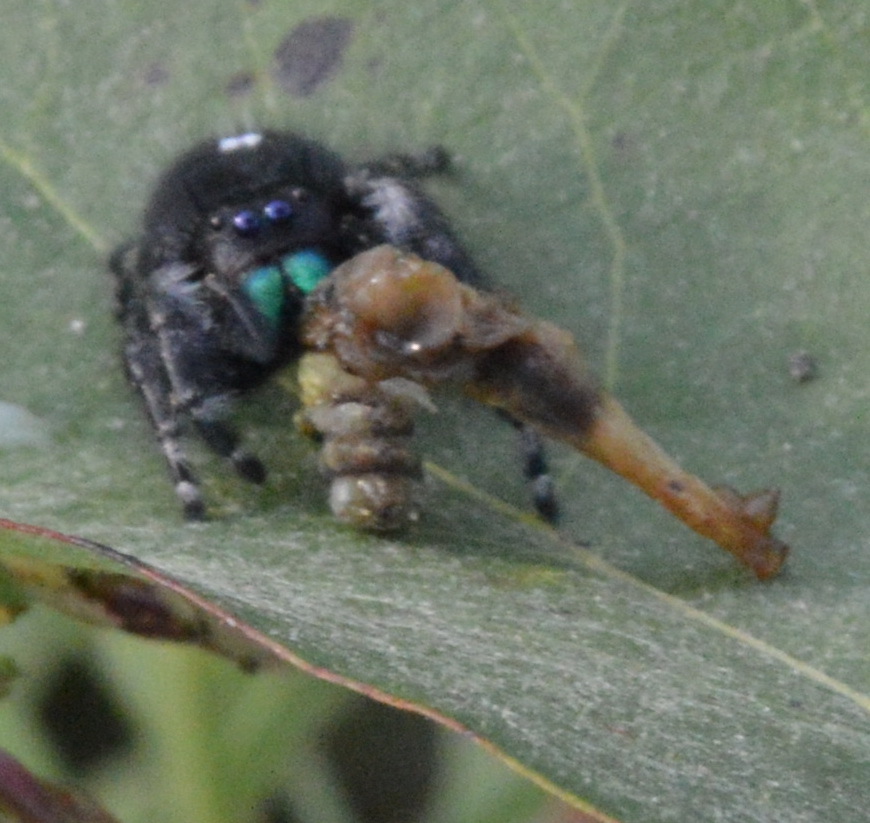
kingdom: Animalia
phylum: Arthropoda
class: Arachnida
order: Araneae
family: Salticidae
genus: Phidippus
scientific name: Phidippus audax
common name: Bold jumper
